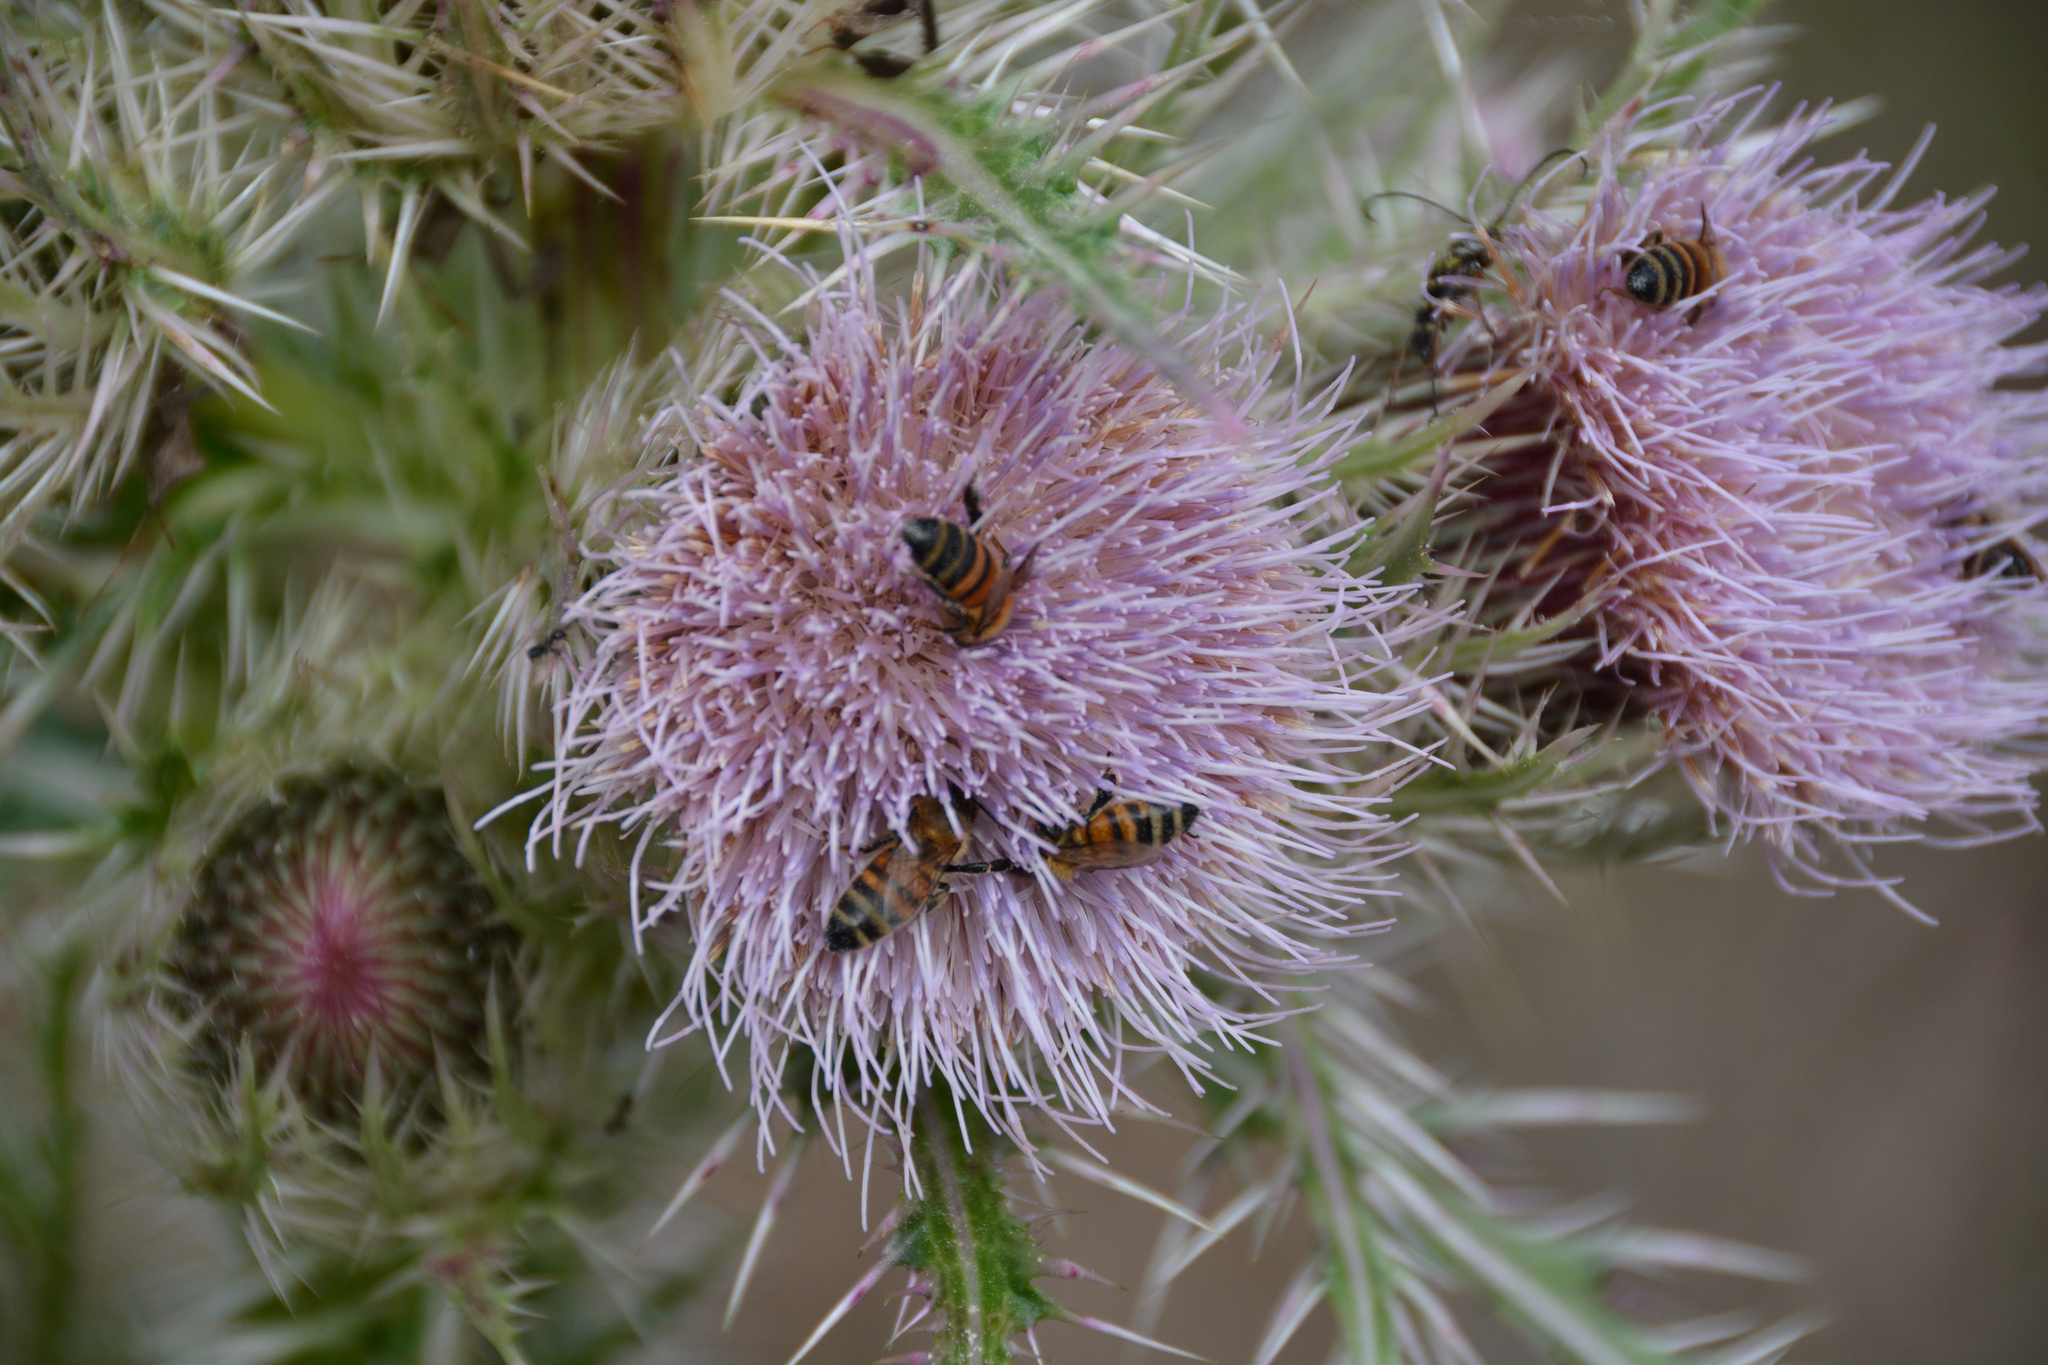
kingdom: Animalia
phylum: Arthropoda
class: Insecta
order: Hymenoptera
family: Apidae
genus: Apis
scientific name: Apis mellifera
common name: Honey bee
